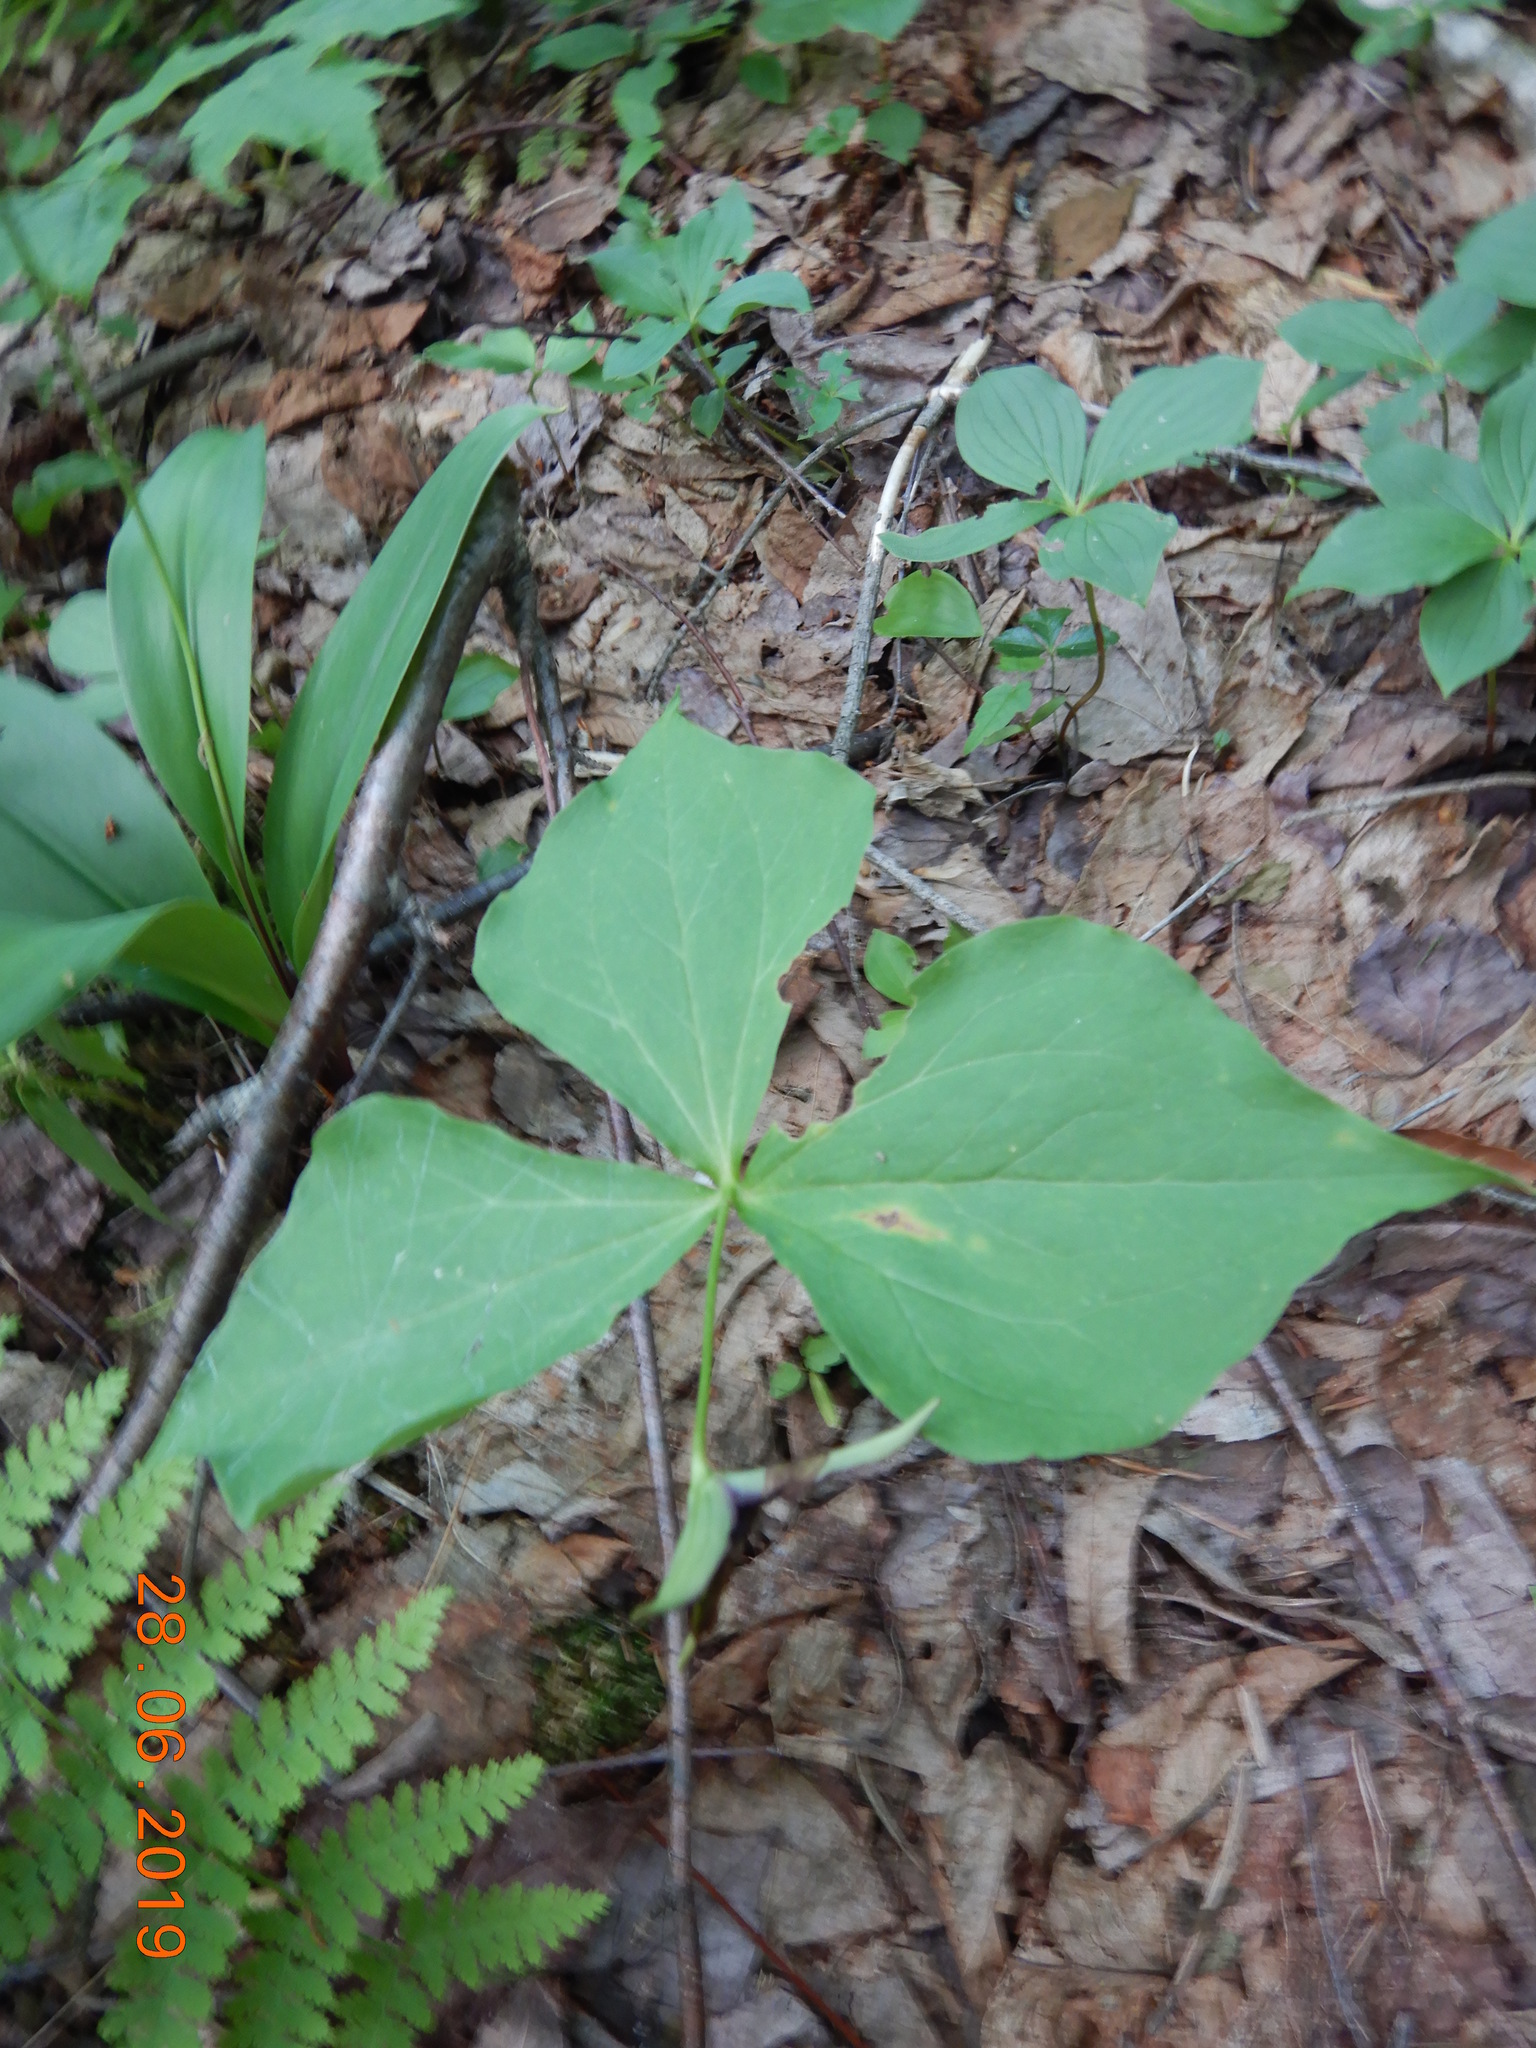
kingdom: Plantae
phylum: Tracheophyta
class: Liliopsida
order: Liliales
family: Melanthiaceae
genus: Trillium
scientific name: Trillium erectum
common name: Purple trillium
